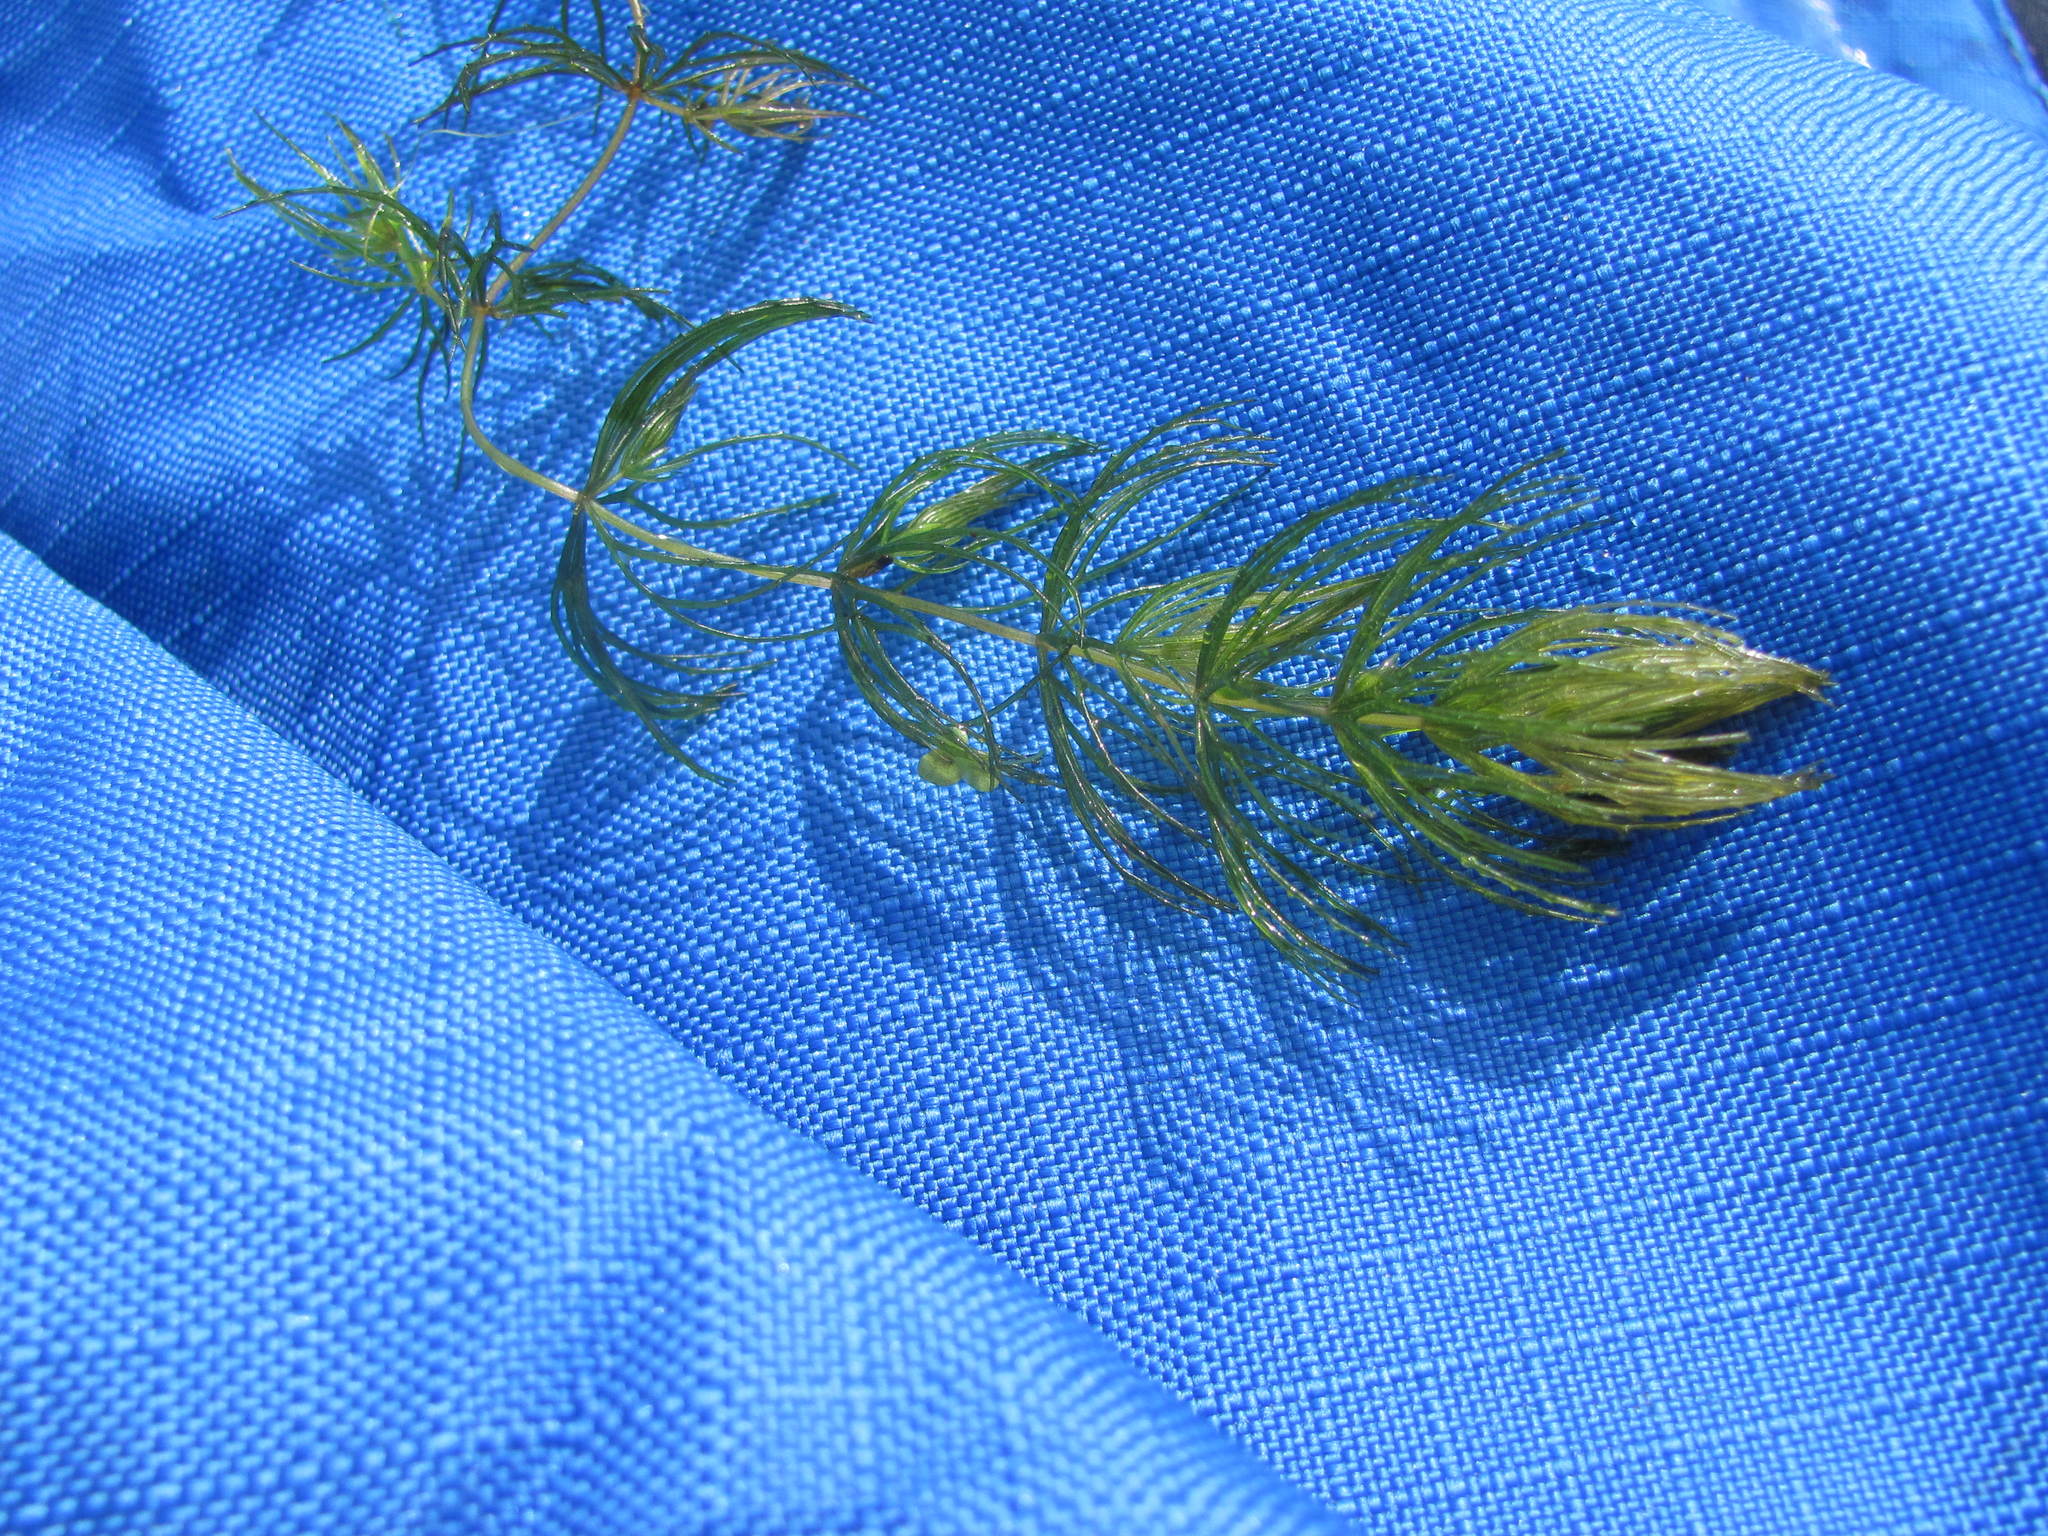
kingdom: Plantae
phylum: Tracheophyta
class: Magnoliopsida
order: Ceratophyllales
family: Ceratophyllaceae
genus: Ceratophyllum
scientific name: Ceratophyllum demersum
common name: Rigid hornwort
